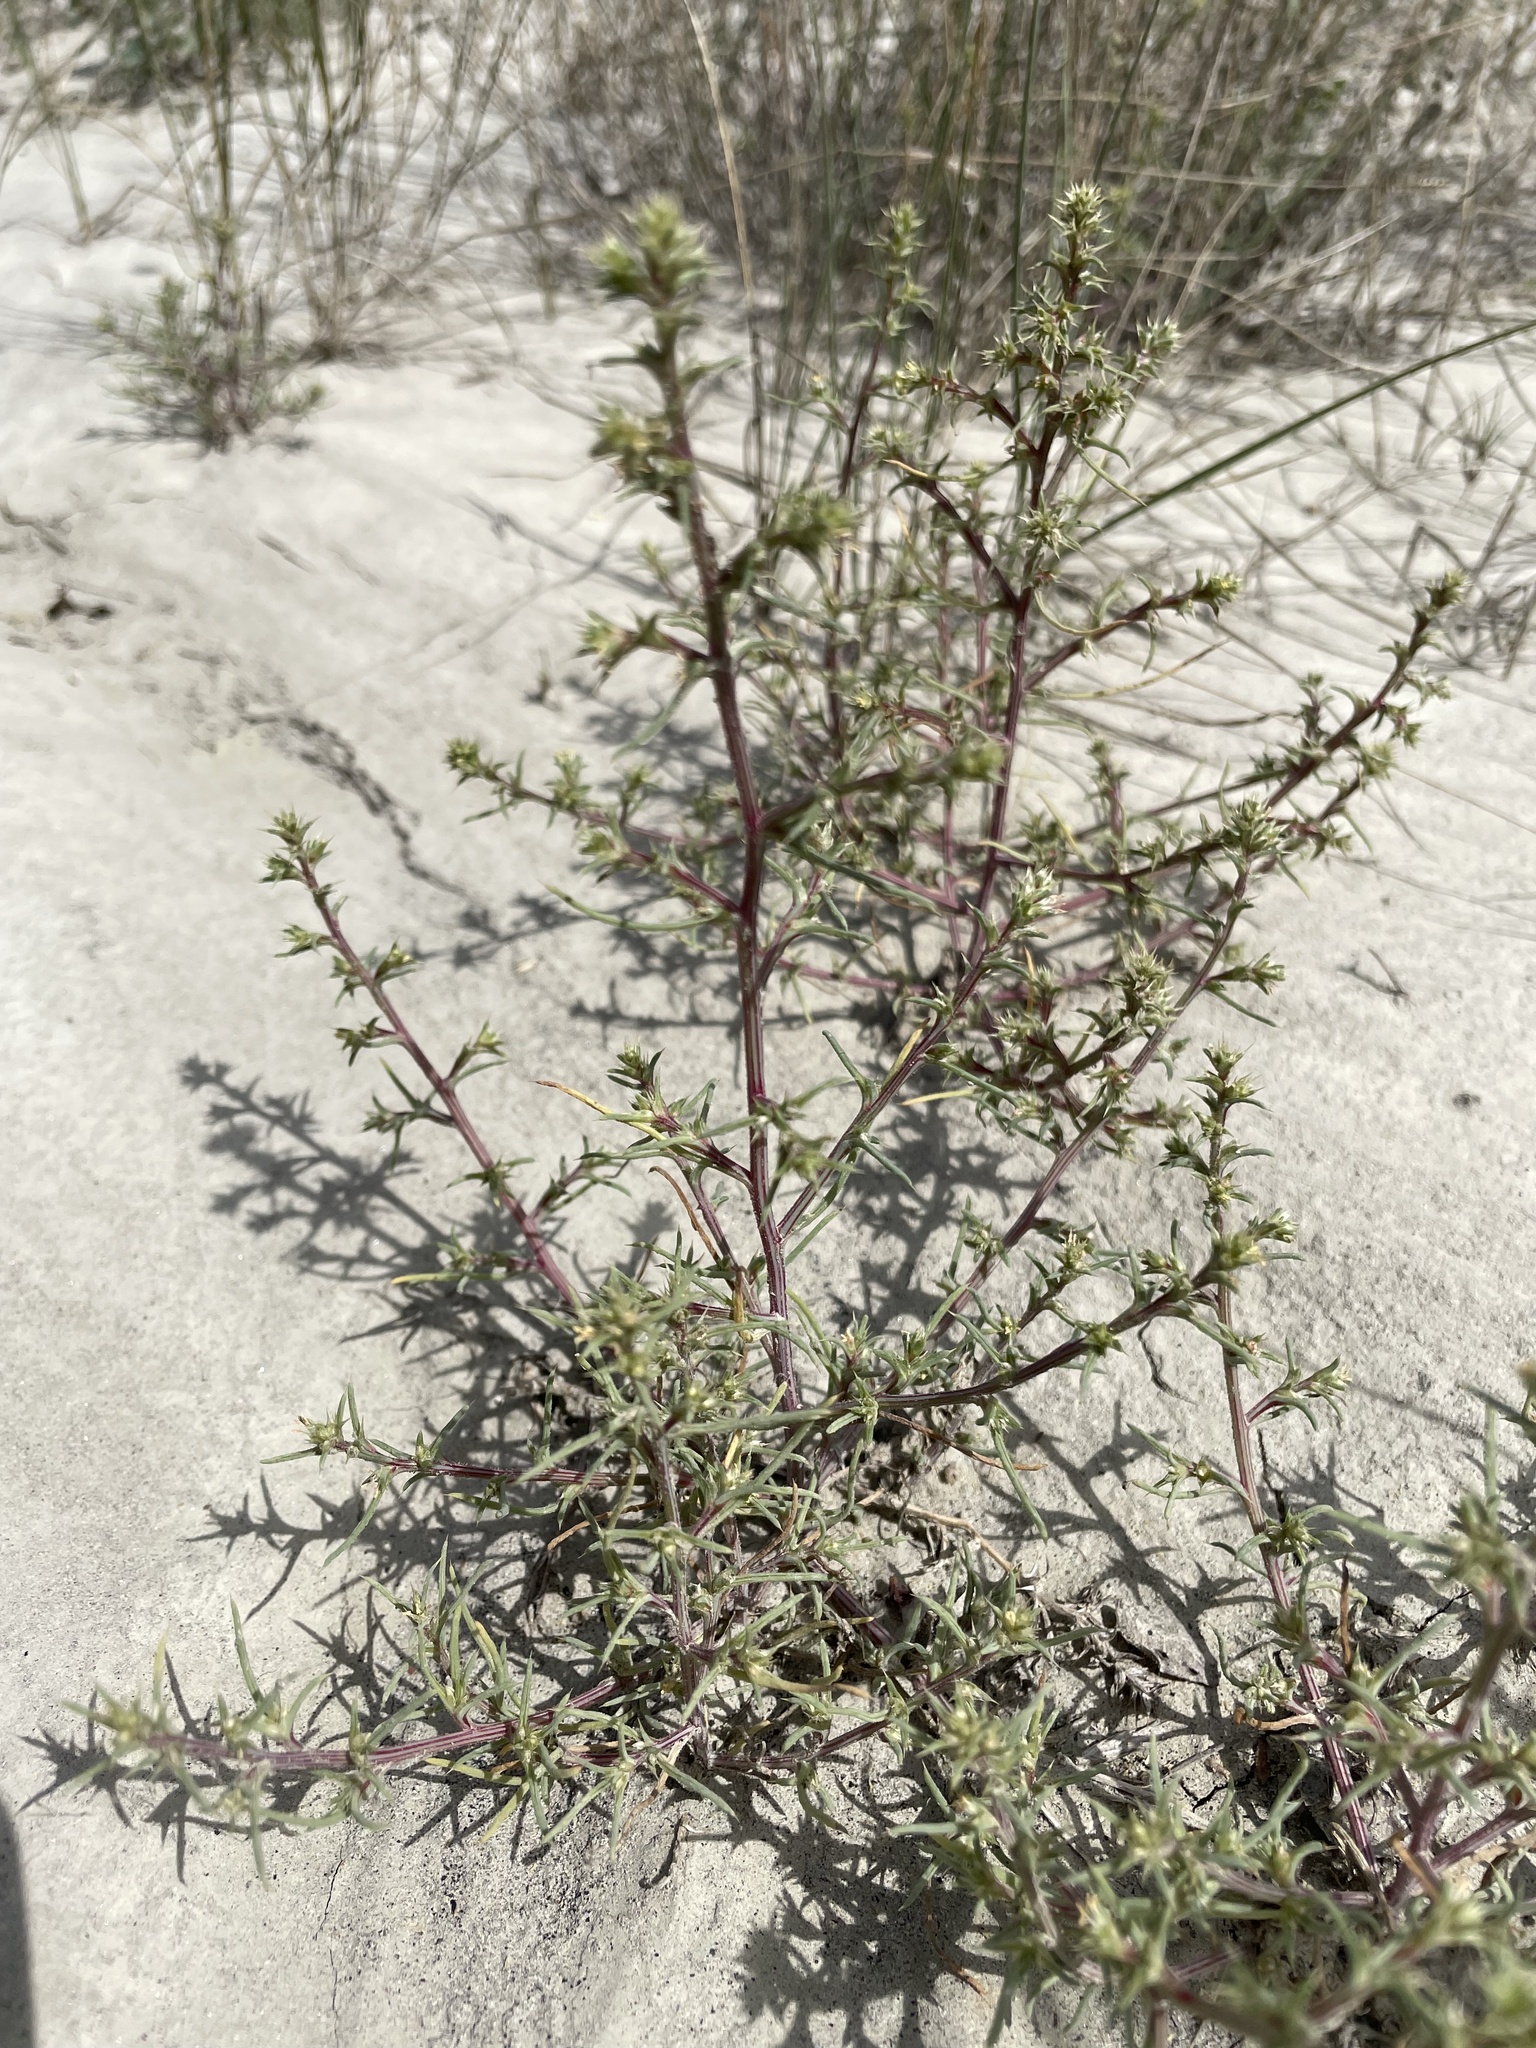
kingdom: Plantae
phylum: Tracheophyta
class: Magnoliopsida
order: Caryophyllales
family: Amaranthaceae
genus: Salsola
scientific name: Salsola tragus
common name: Prickly russian thistle
